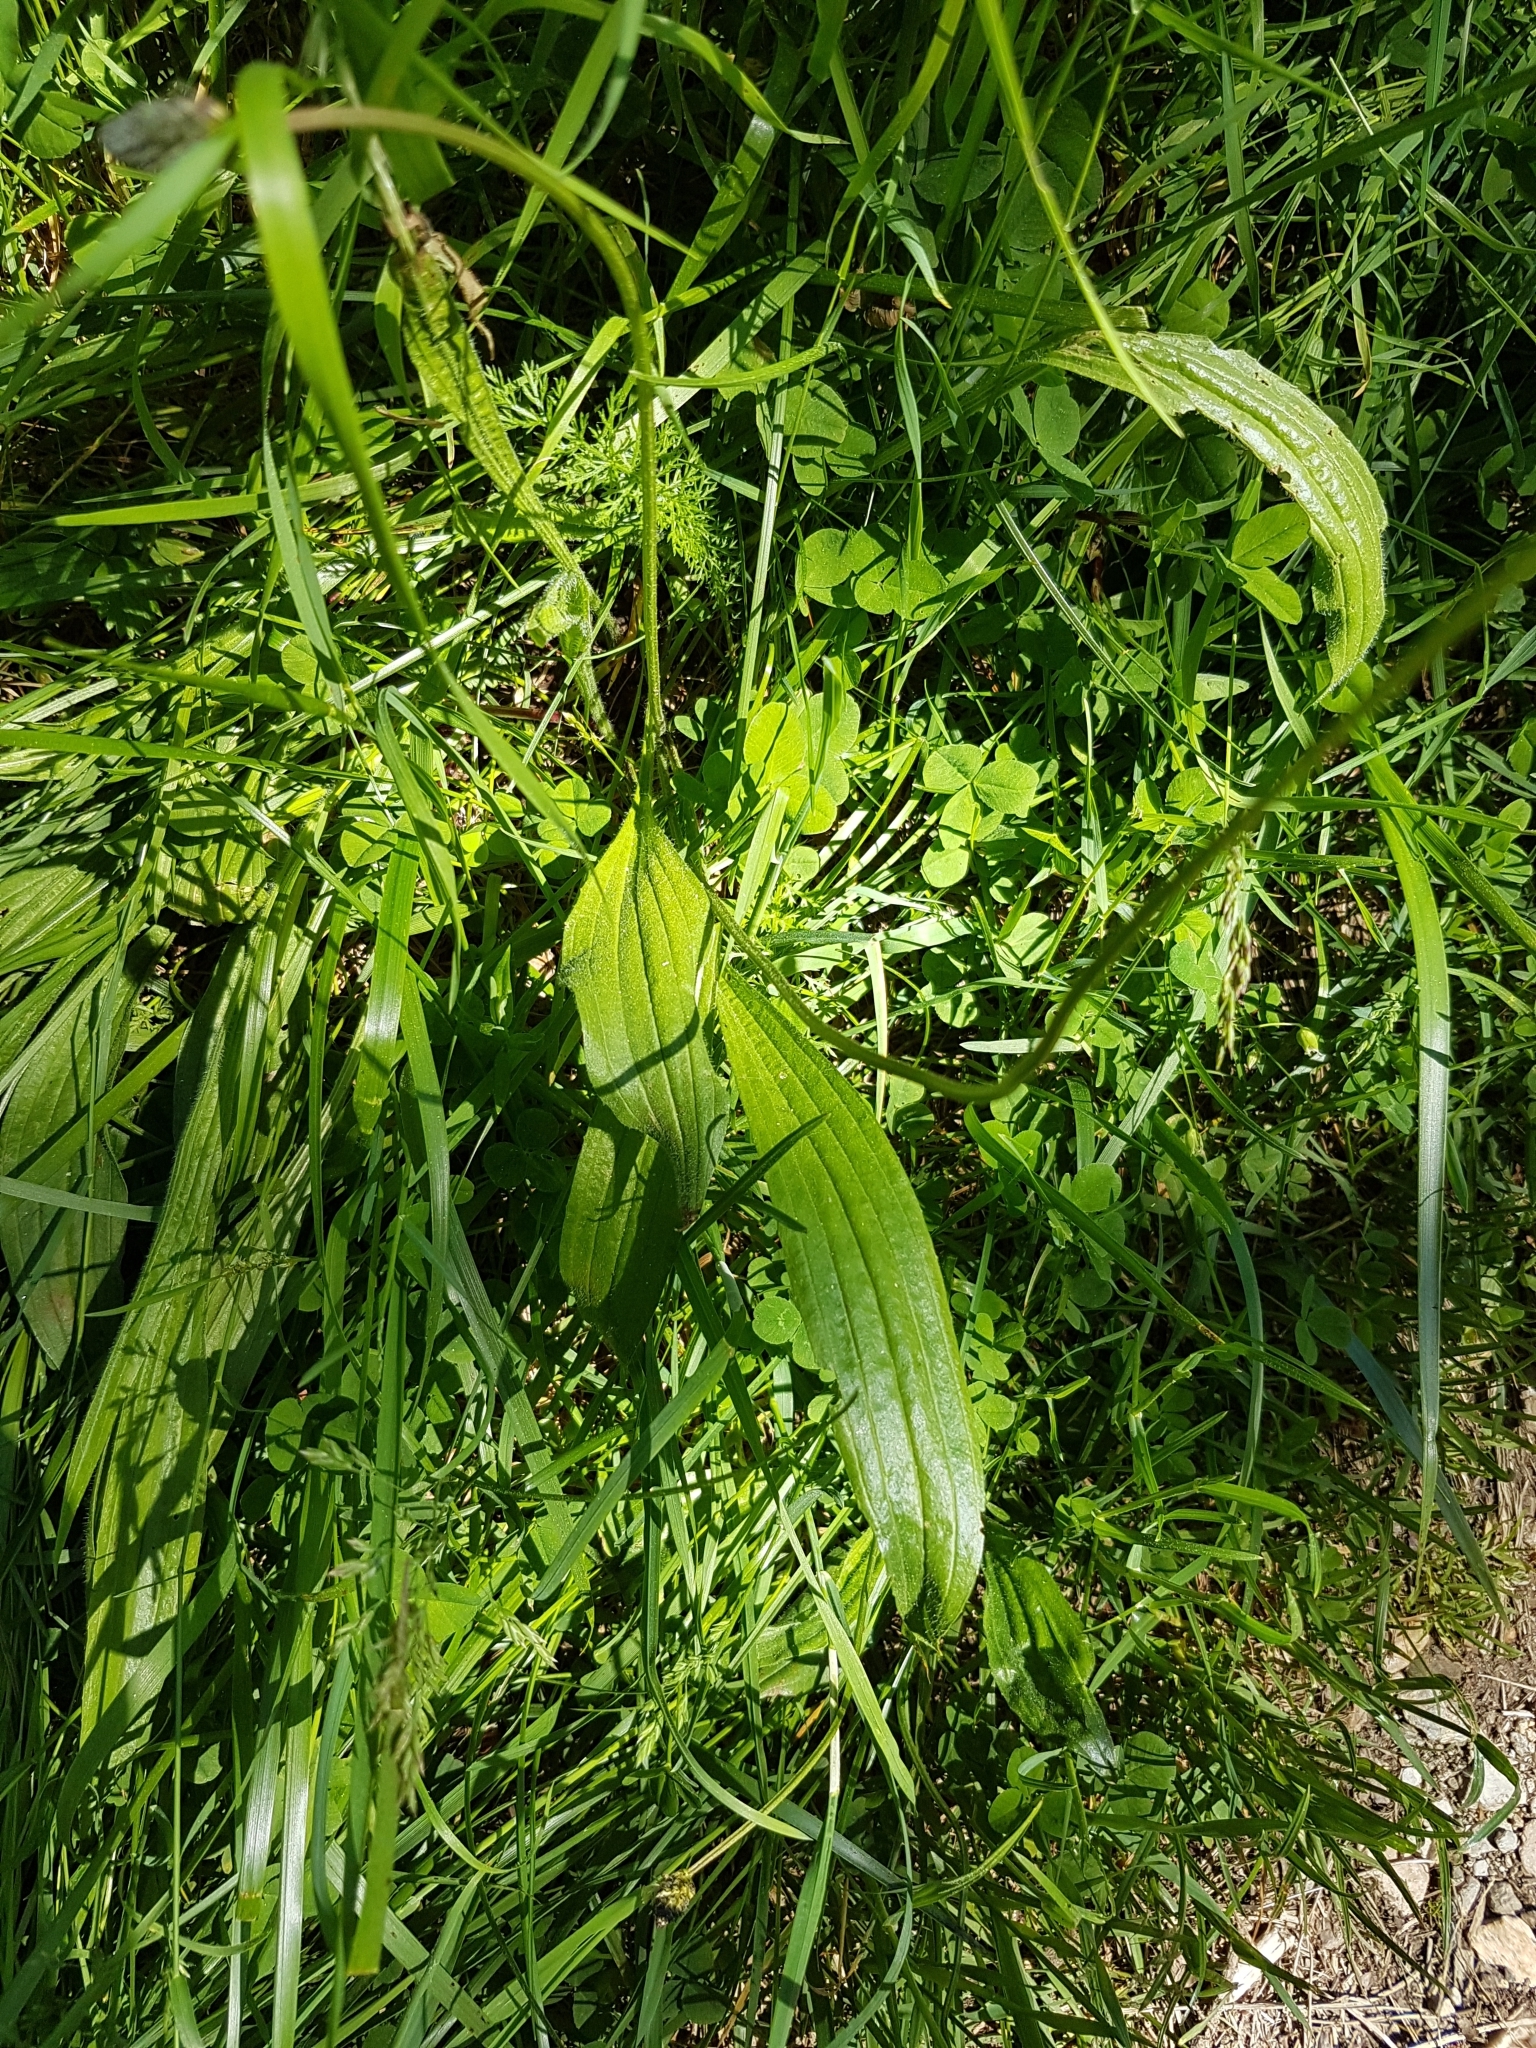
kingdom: Plantae
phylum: Tracheophyta
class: Magnoliopsida
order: Lamiales
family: Plantaginaceae
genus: Plantago
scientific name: Plantago lanceolata
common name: Ribwort plantain
